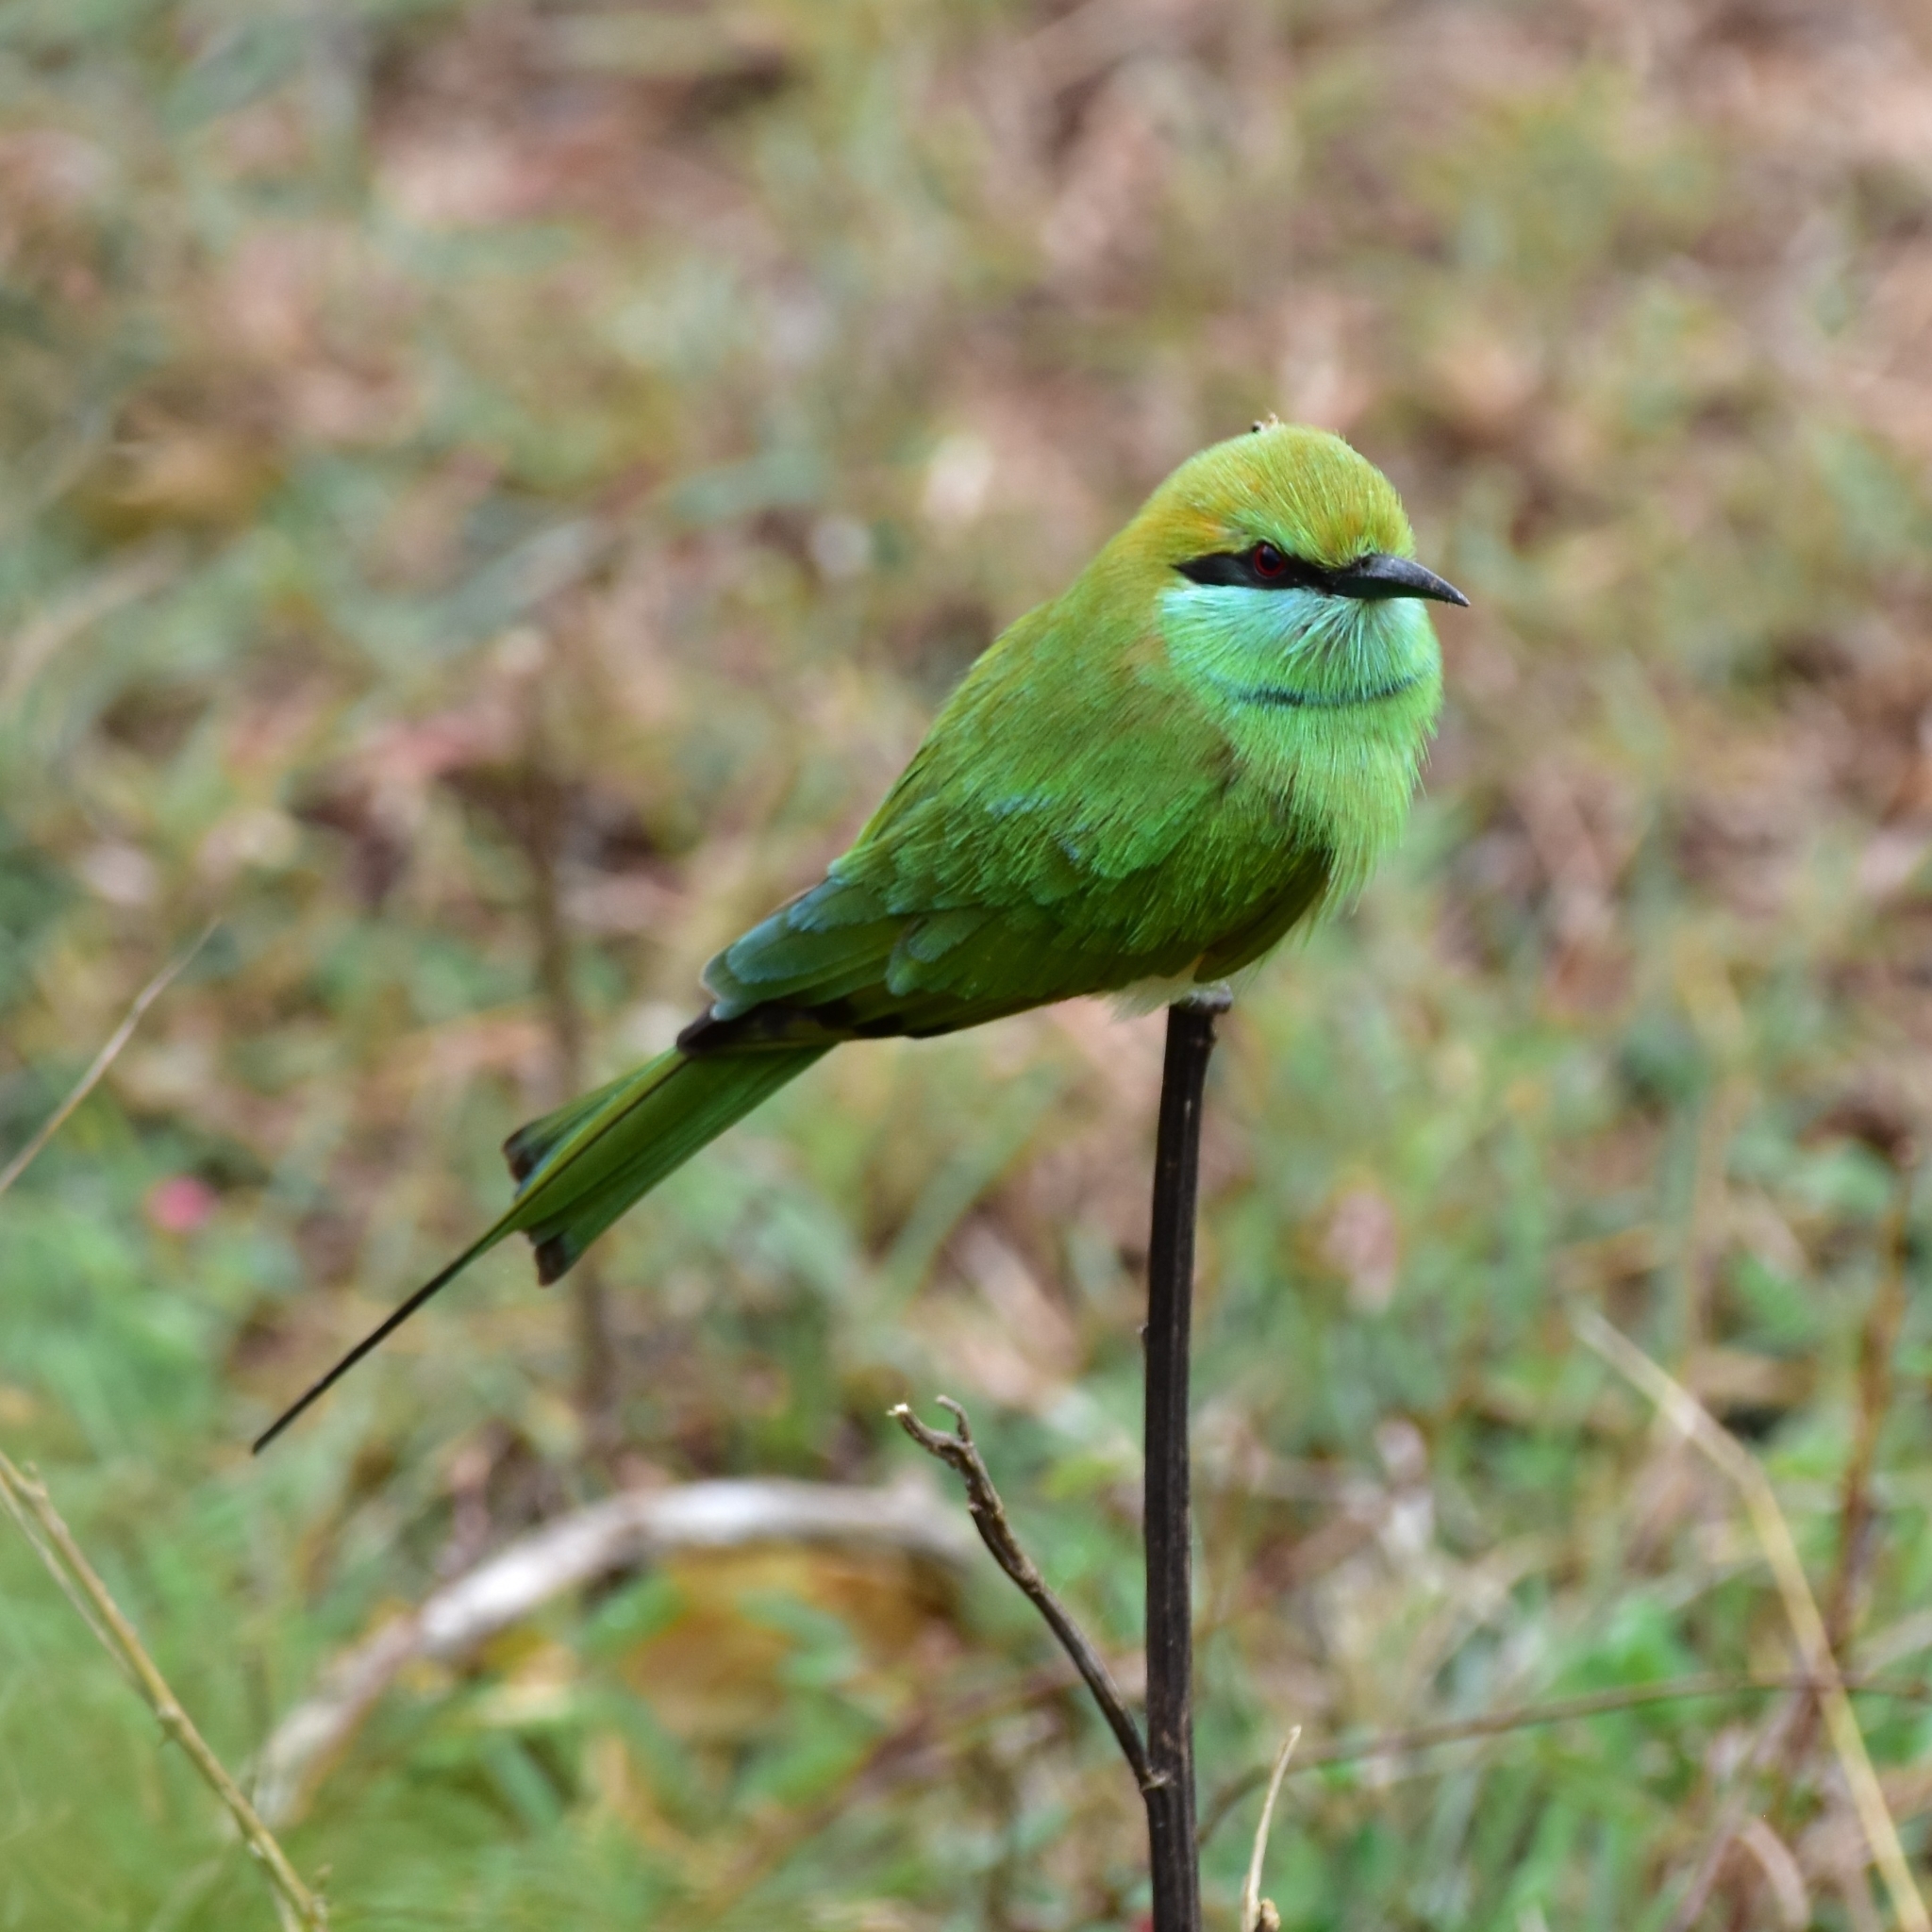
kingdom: Animalia
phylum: Chordata
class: Aves
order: Coraciiformes
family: Meropidae
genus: Merops
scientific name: Merops orientalis
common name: Green bee-eater
